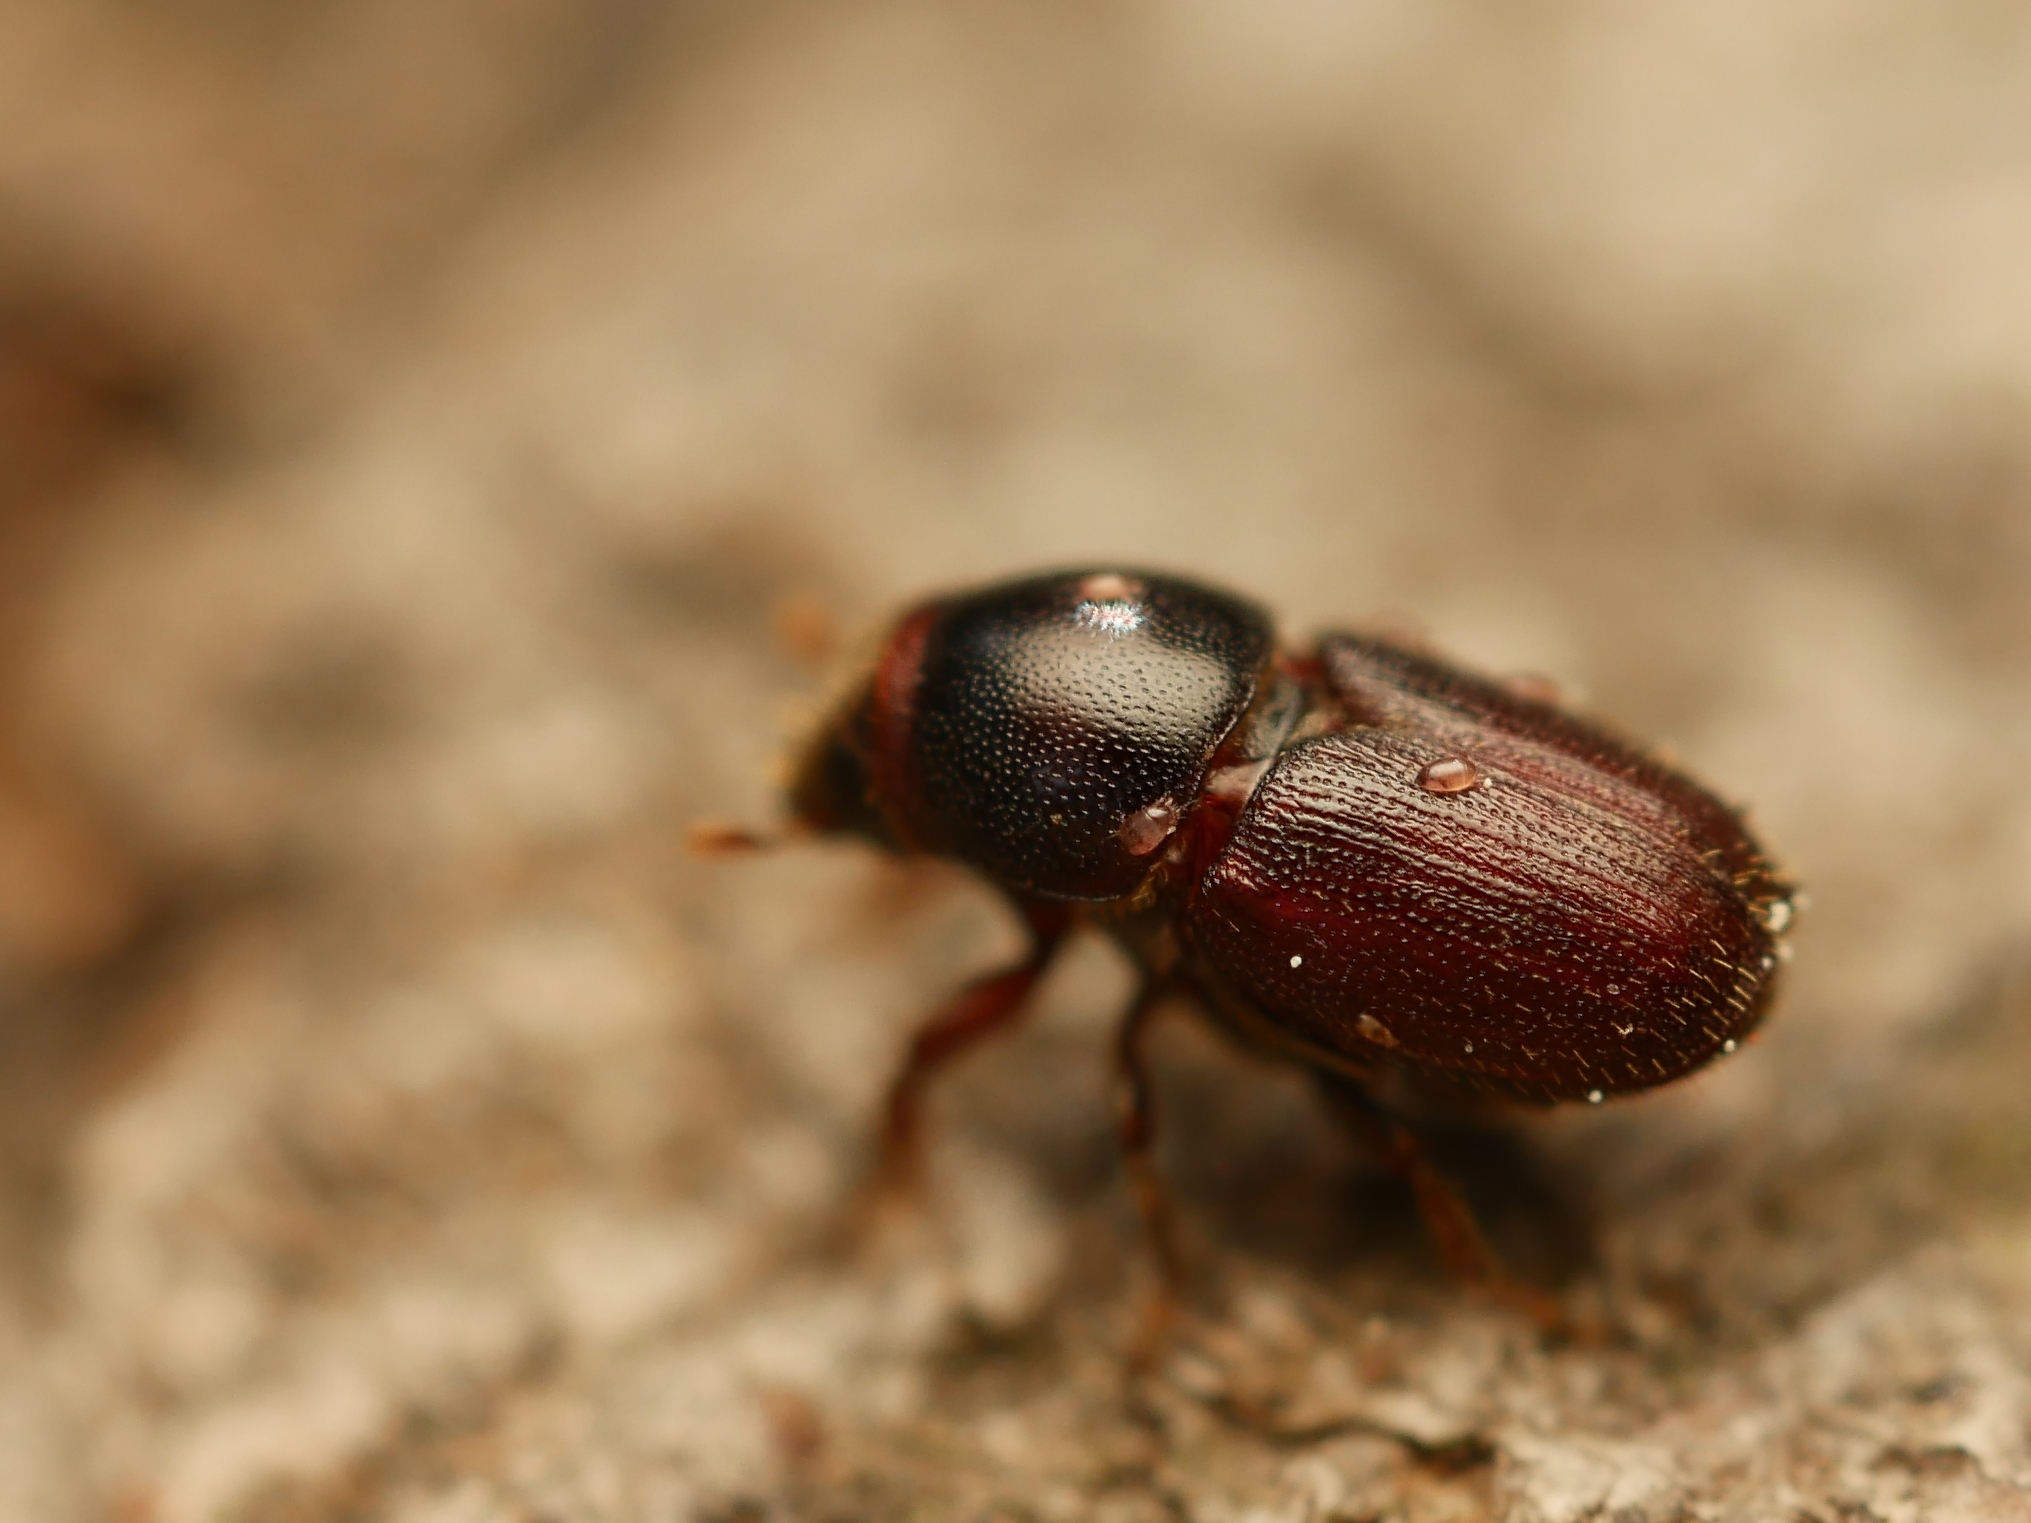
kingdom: Animalia
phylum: Arthropoda
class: Insecta
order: Coleoptera
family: Curculionidae
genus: Scolytus
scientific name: Scolytus intricatus
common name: Oak bark beetle
